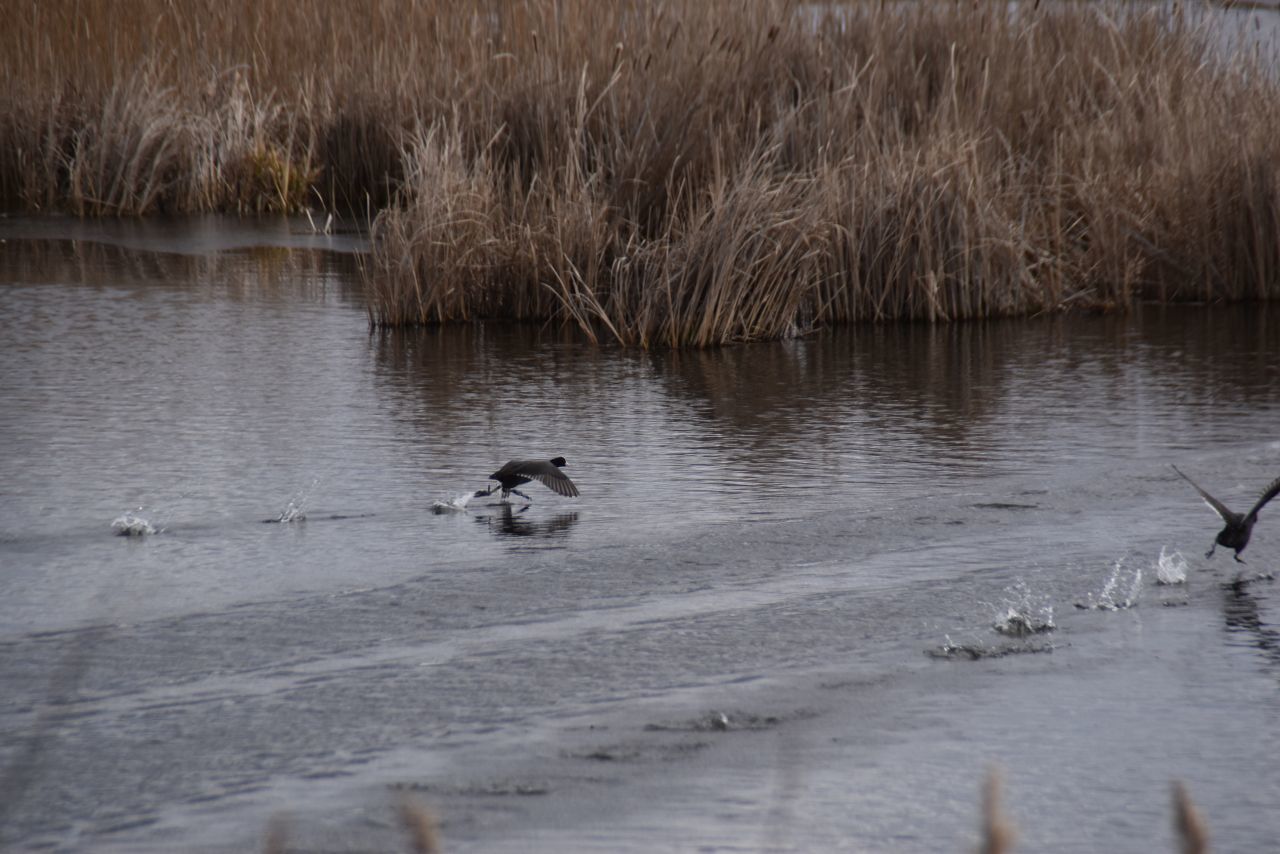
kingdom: Animalia
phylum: Chordata
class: Aves
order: Gruiformes
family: Rallidae
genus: Fulica
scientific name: Fulica atra
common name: Eurasian coot
